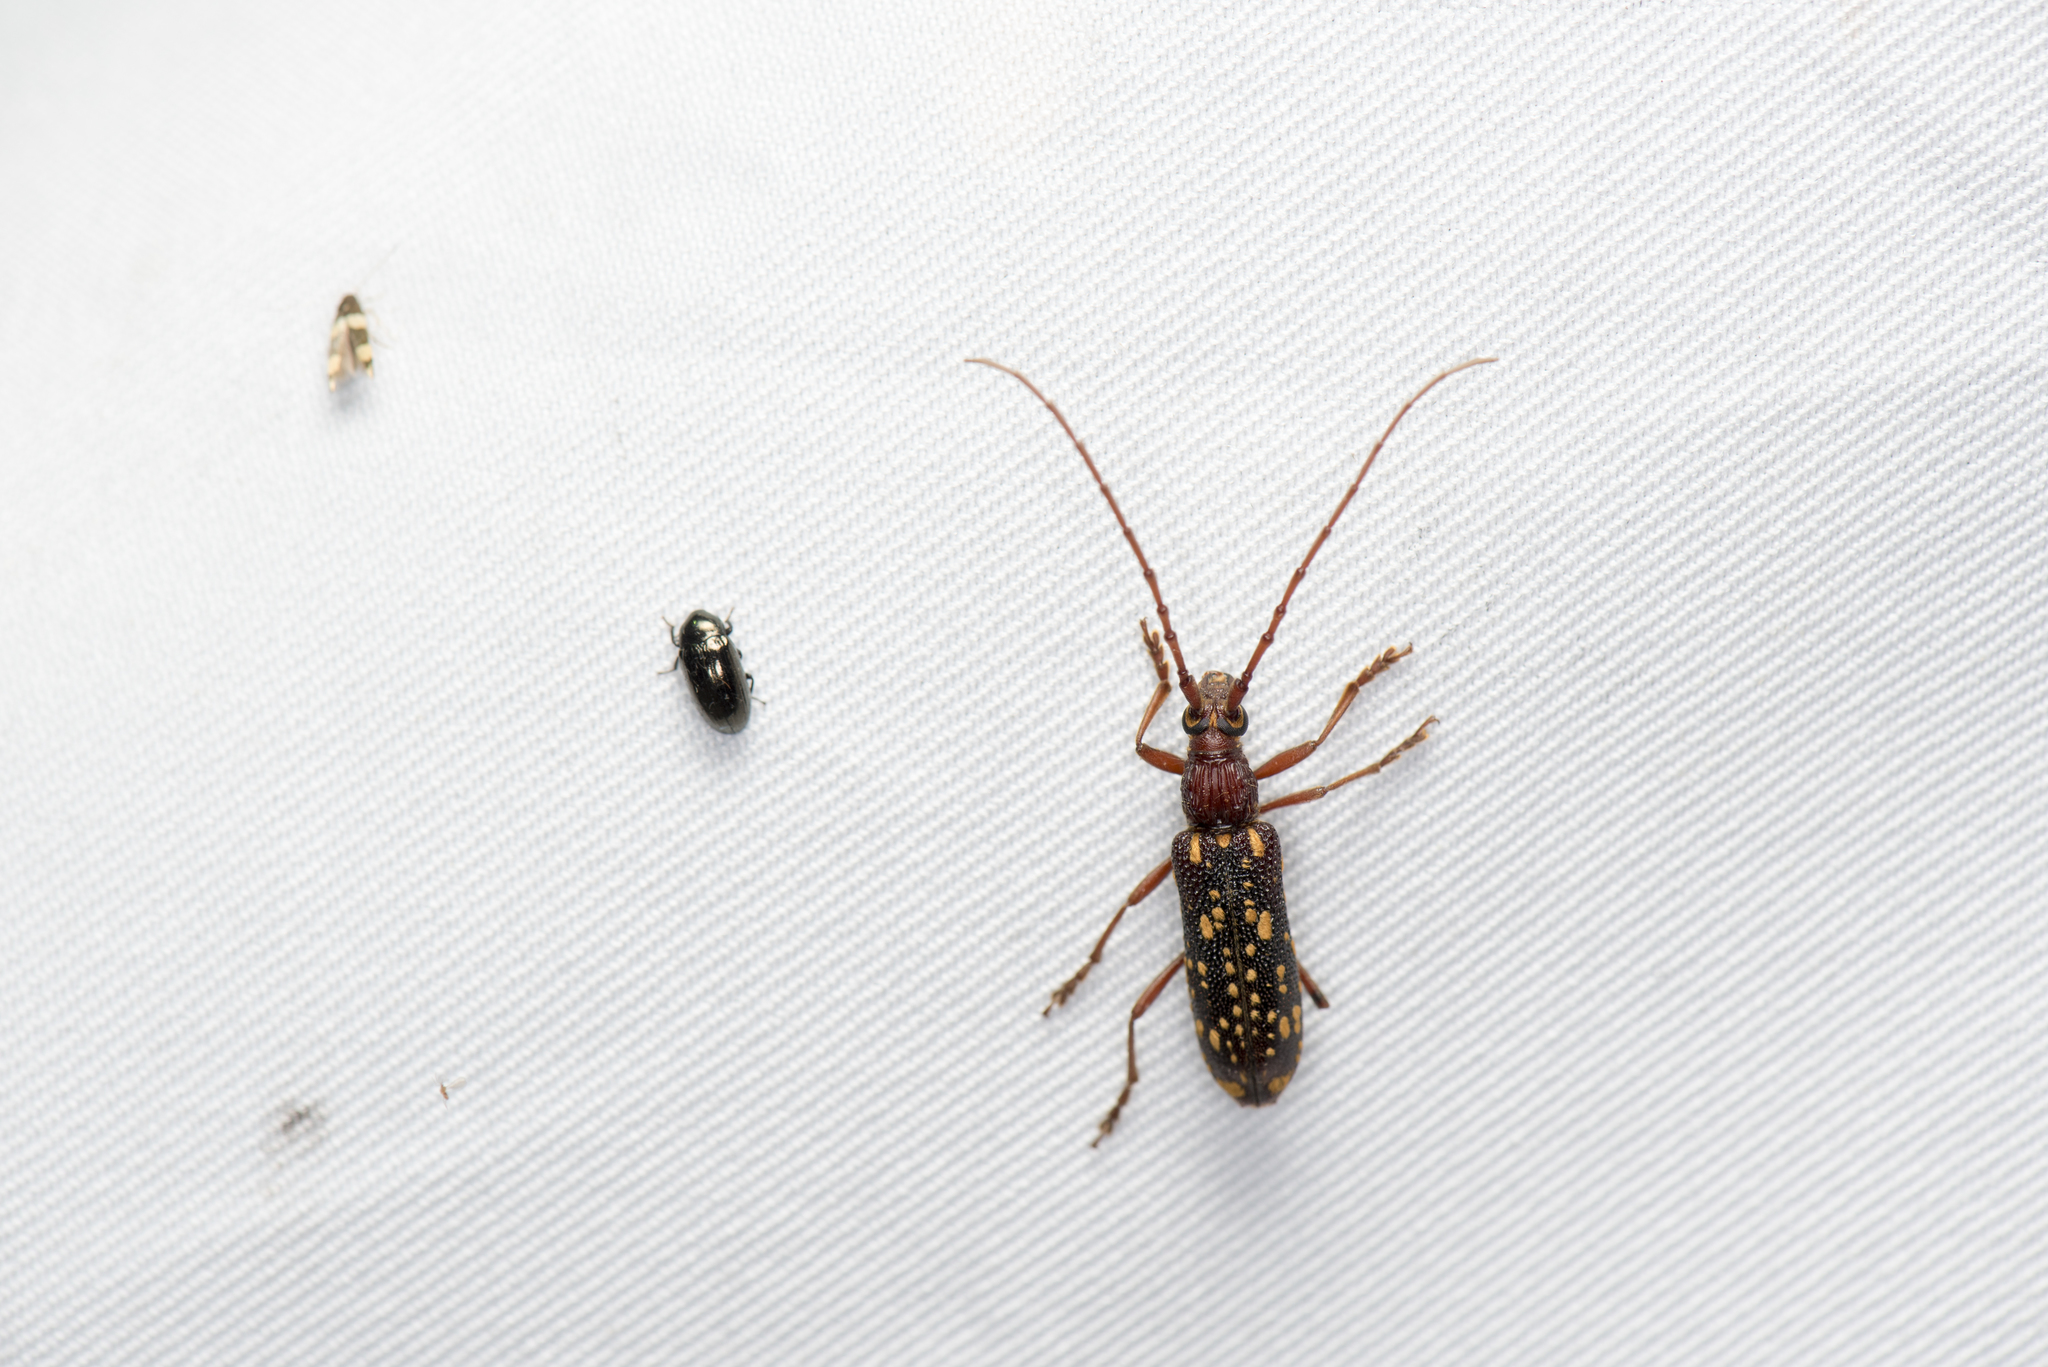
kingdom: Animalia
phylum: Arthropoda
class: Insecta
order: Coleoptera
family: Cerambycidae
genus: Xoanodera
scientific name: Xoanodera maculata
